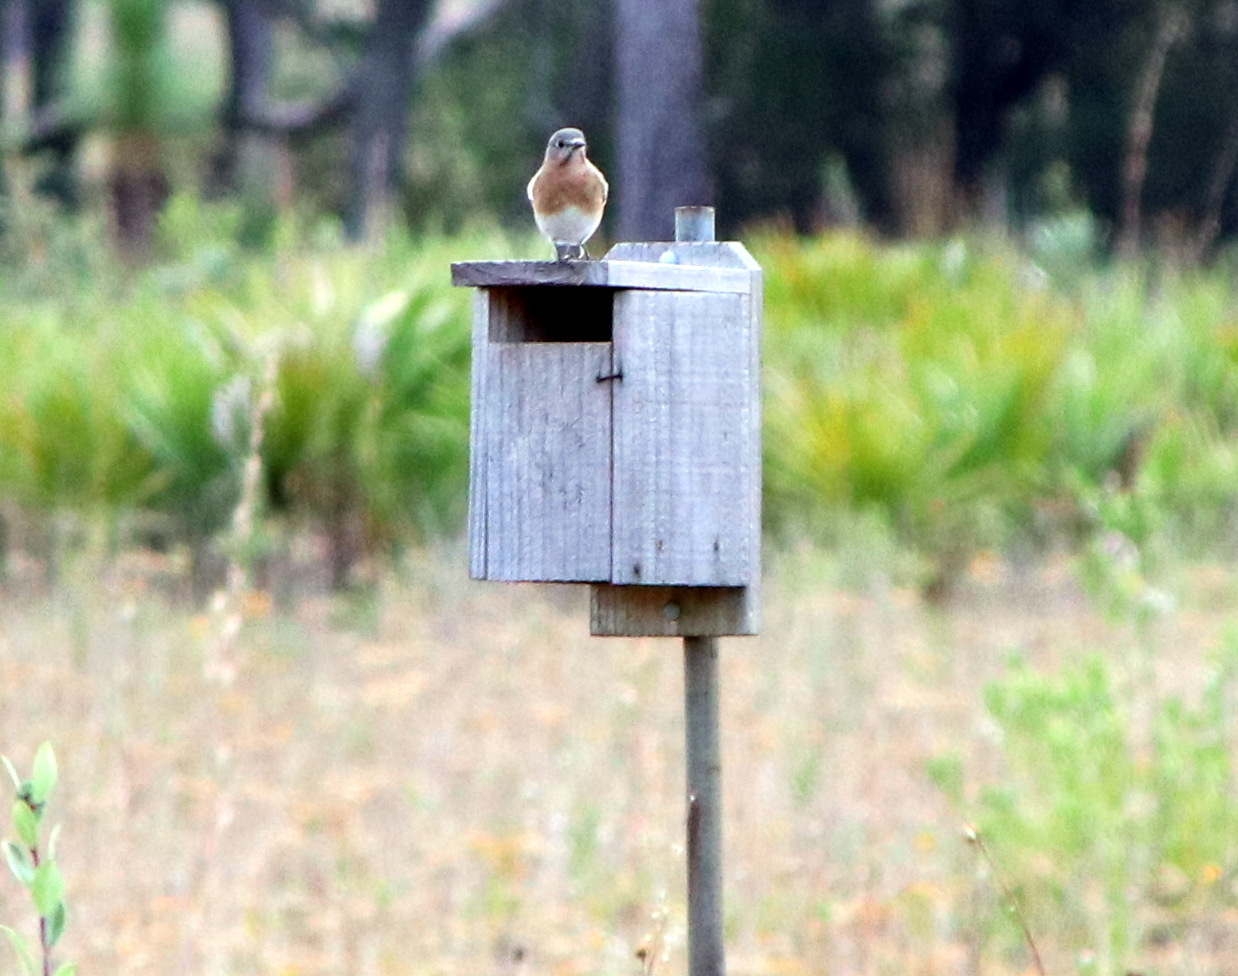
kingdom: Animalia
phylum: Chordata
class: Aves
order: Passeriformes
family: Turdidae
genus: Sialia
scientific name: Sialia sialis
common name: Eastern bluebird
